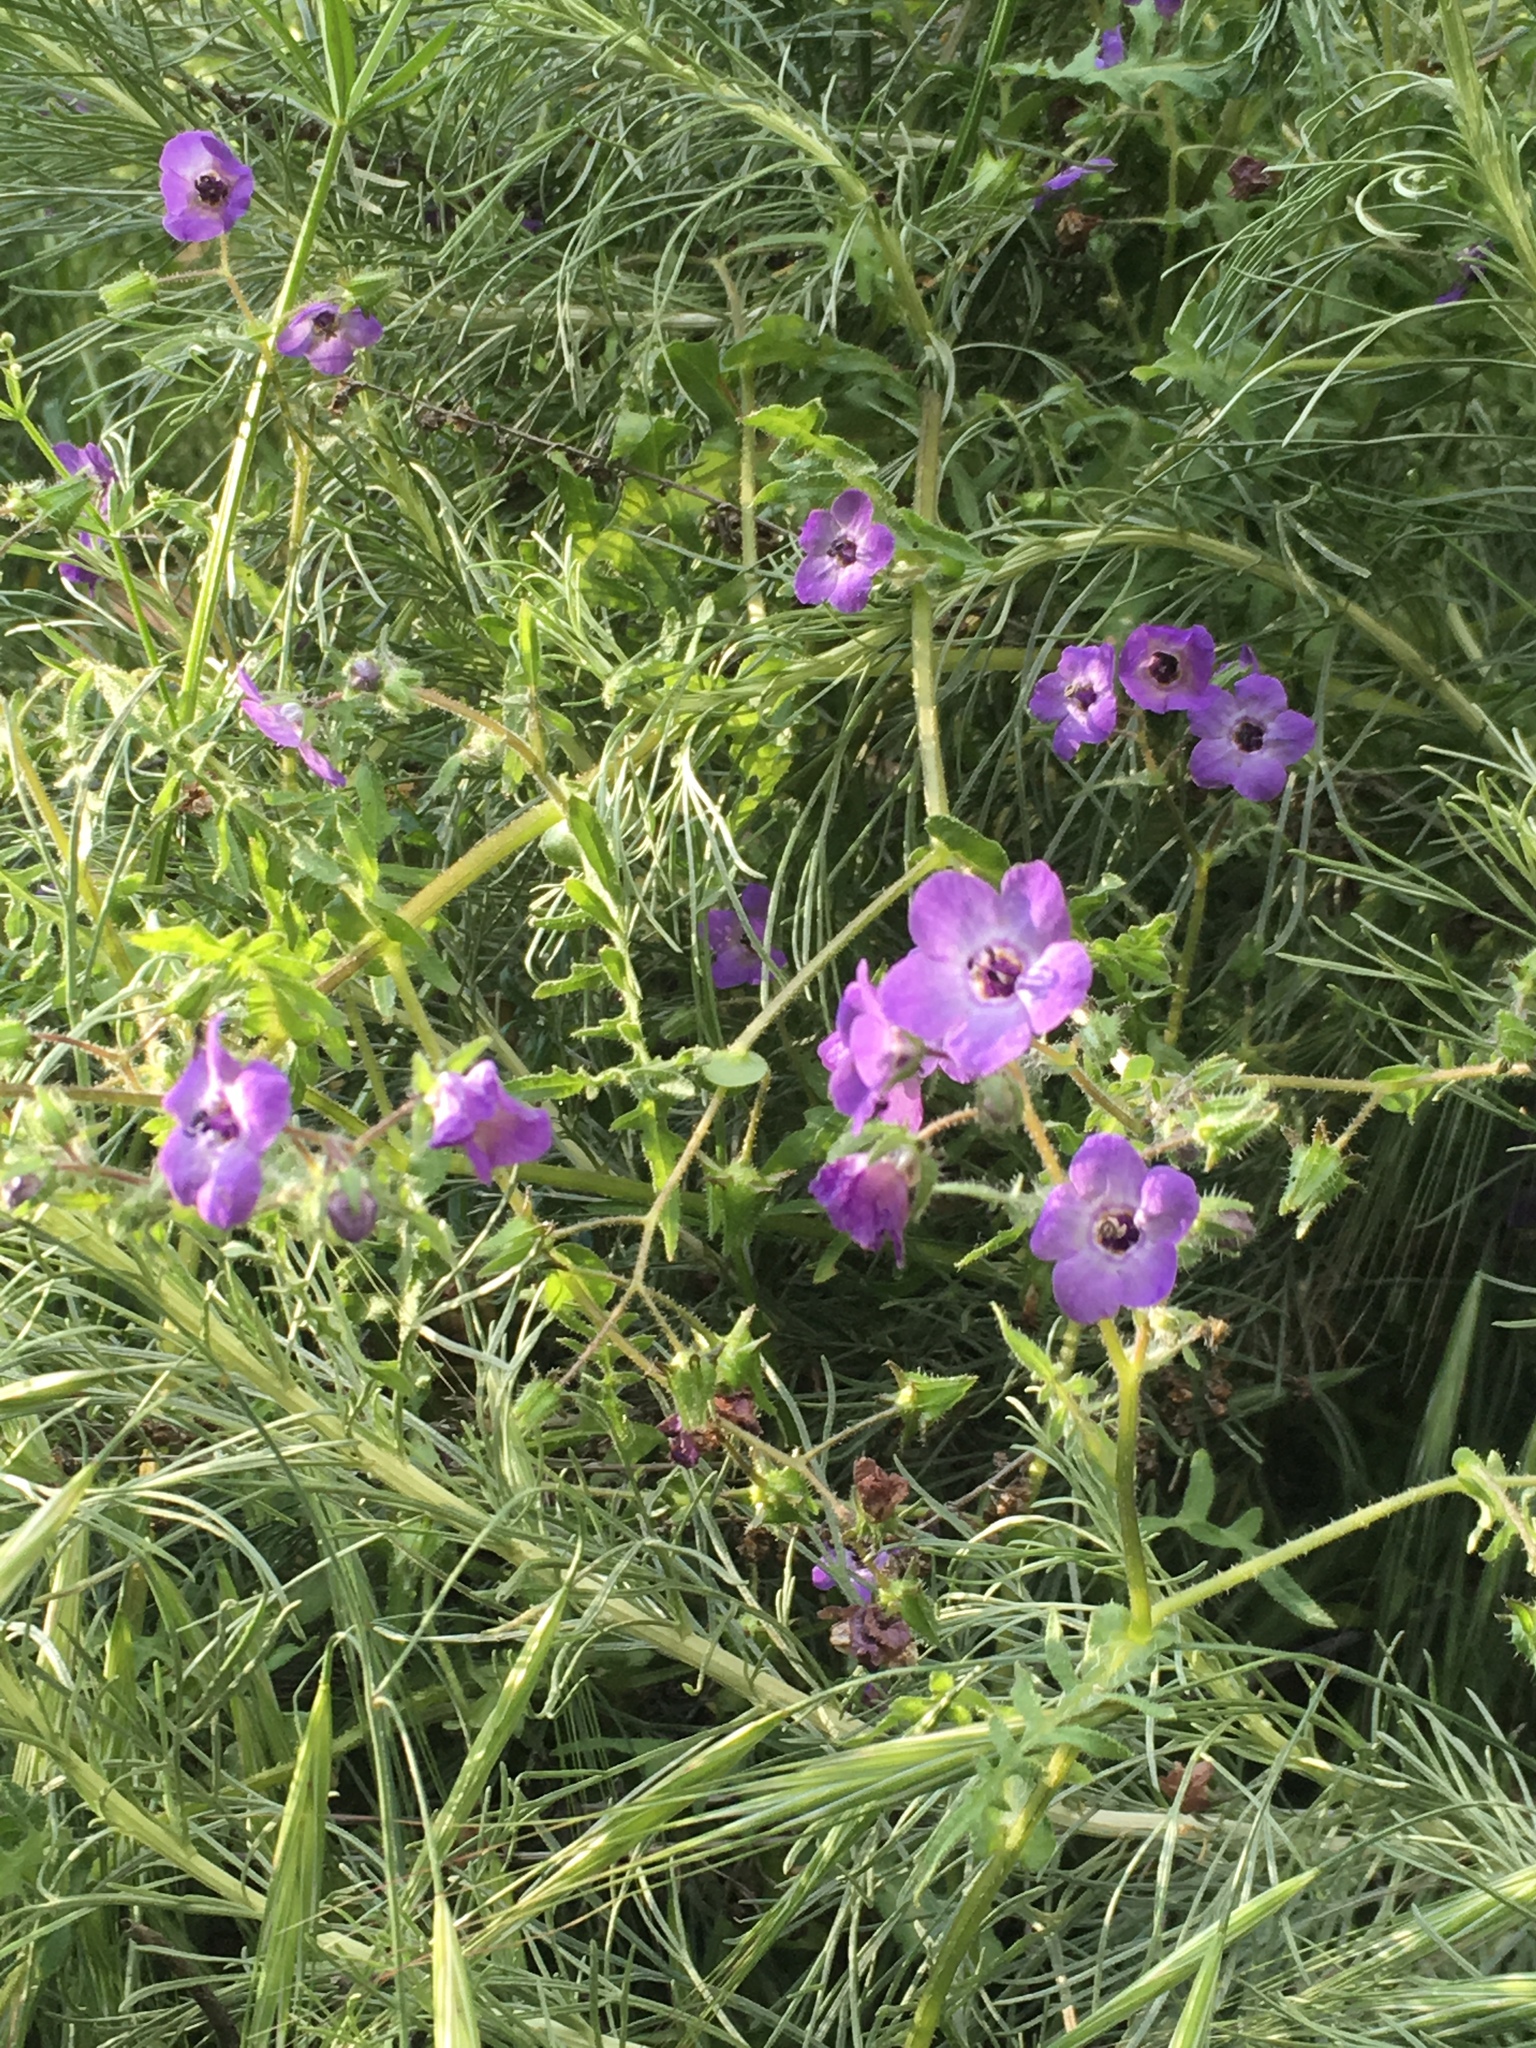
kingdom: Plantae
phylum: Tracheophyta
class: Magnoliopsida
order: Boraginales
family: Hydrophyllaceae
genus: Pholistoma
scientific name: Pholistoma auritum
